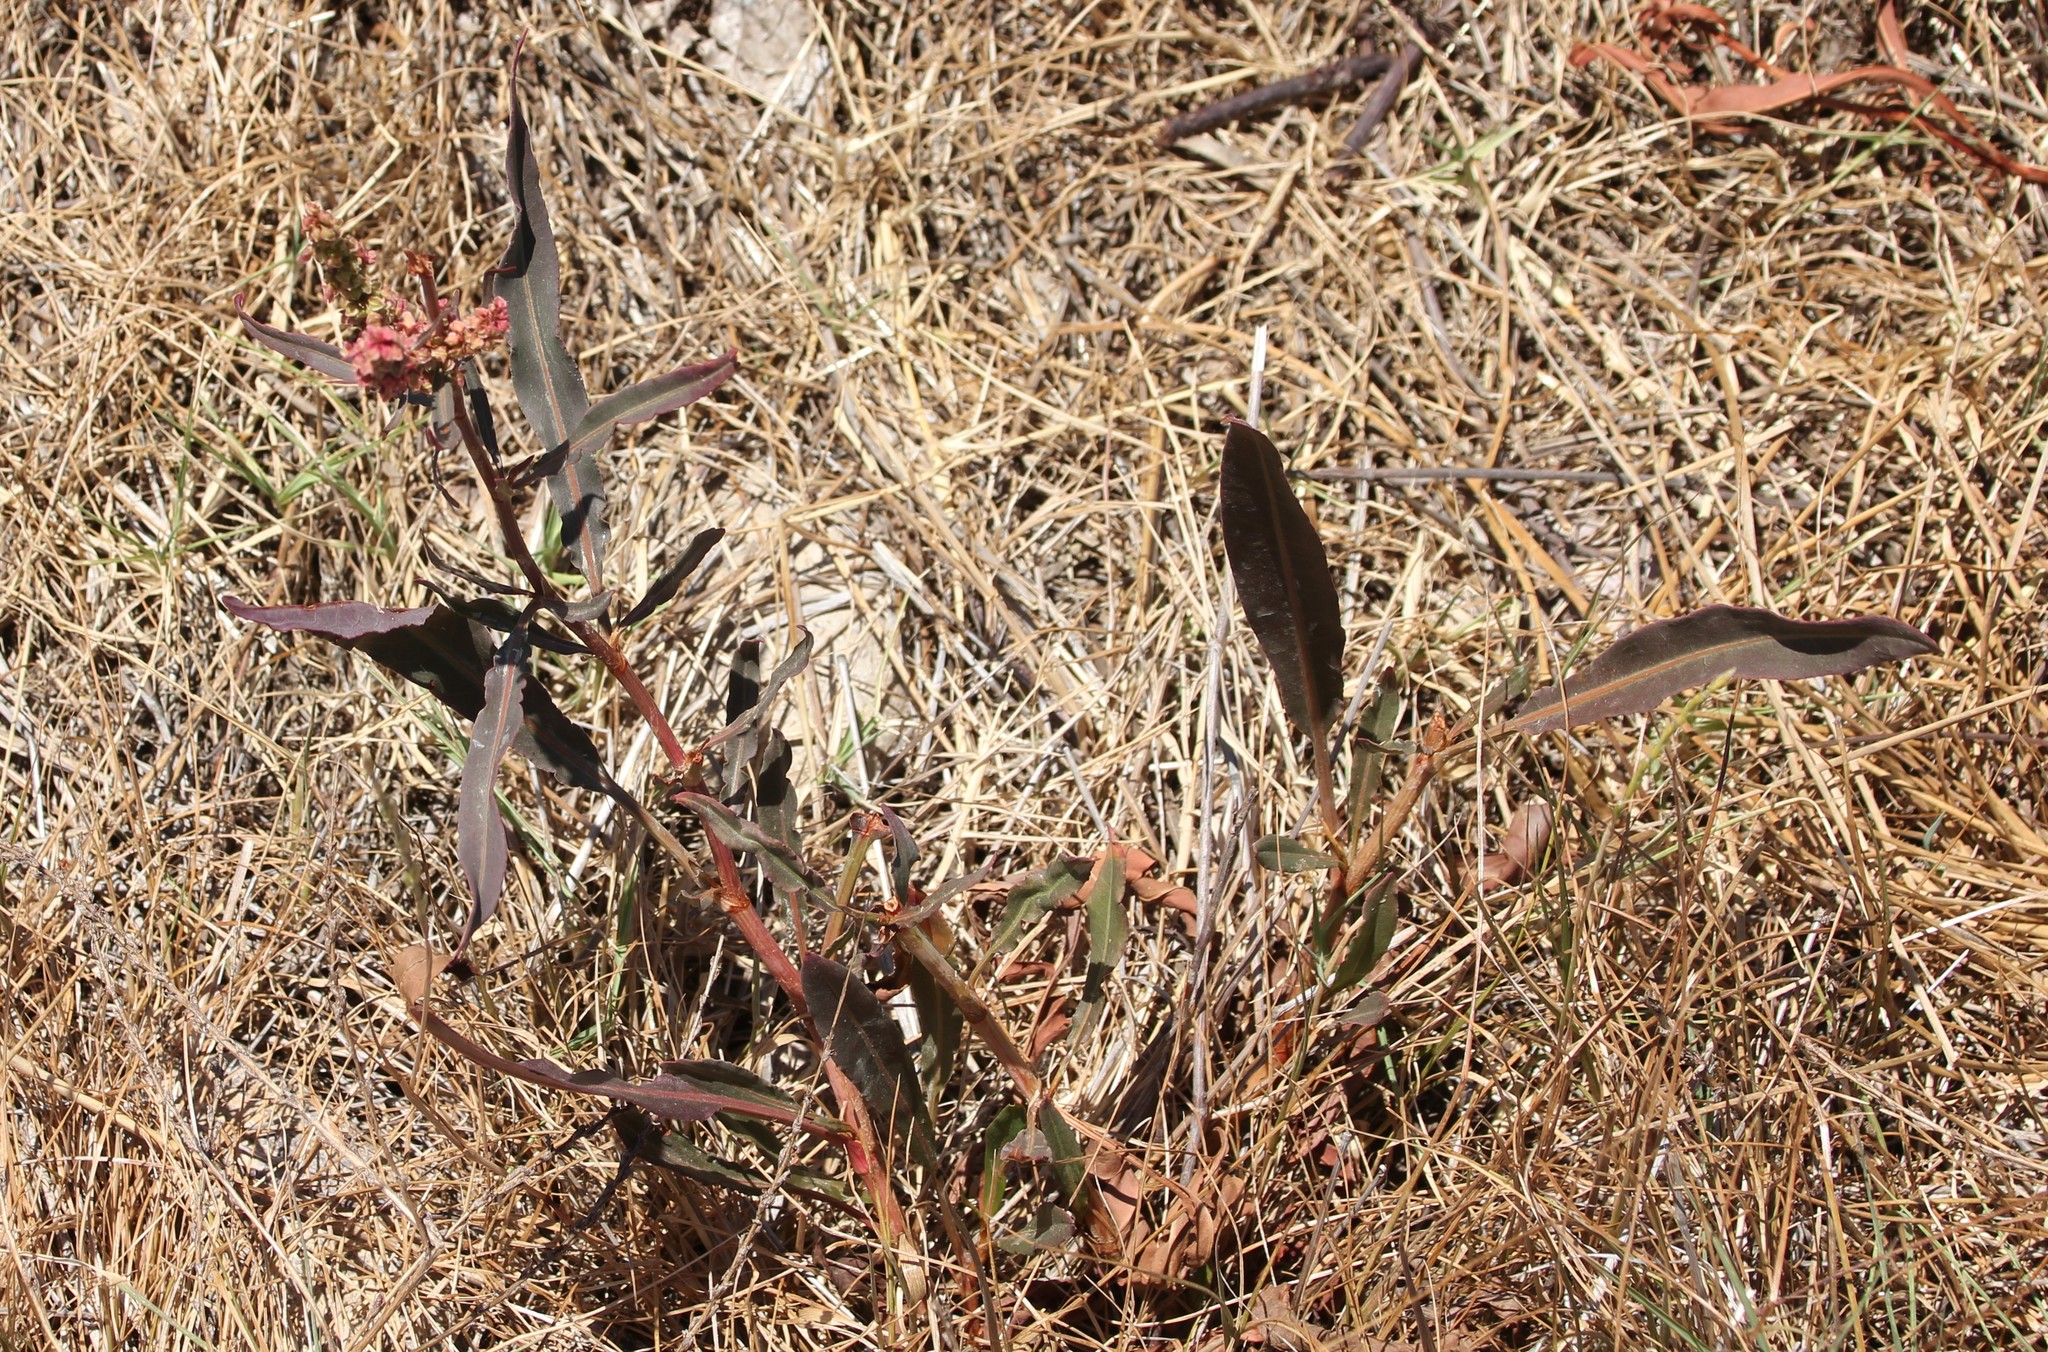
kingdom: Plantae
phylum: Tracheophyta
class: Magnoliopsida
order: Caryophyllales
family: Polygonaceae
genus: Rumex
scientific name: Rumex californicus
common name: California willow dock
